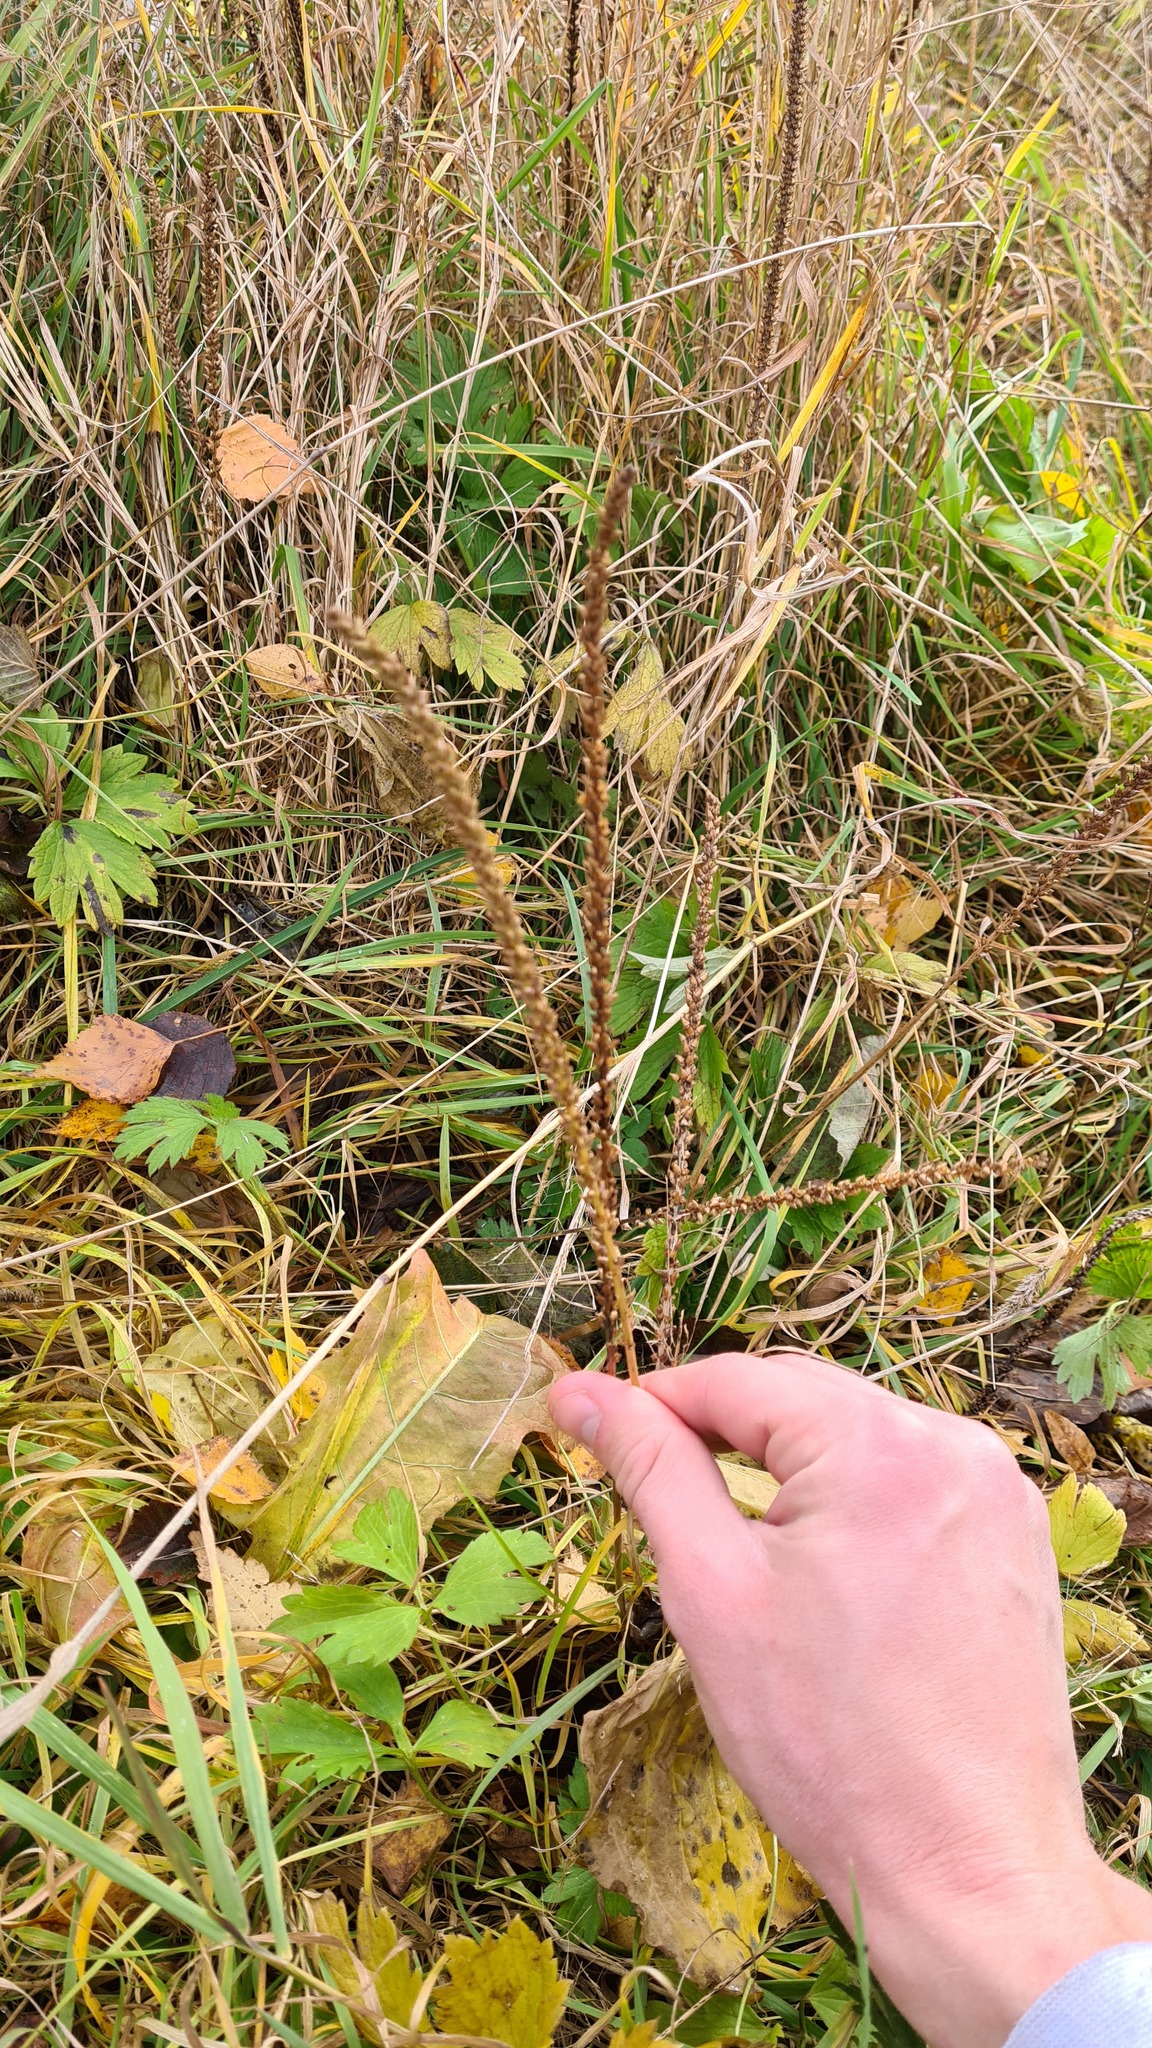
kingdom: Plantae
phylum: Tracheophyta
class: Magnoliopsida
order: Lamiales
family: Plantaginaceae
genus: Plantago
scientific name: Plantago major
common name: Common plantain
